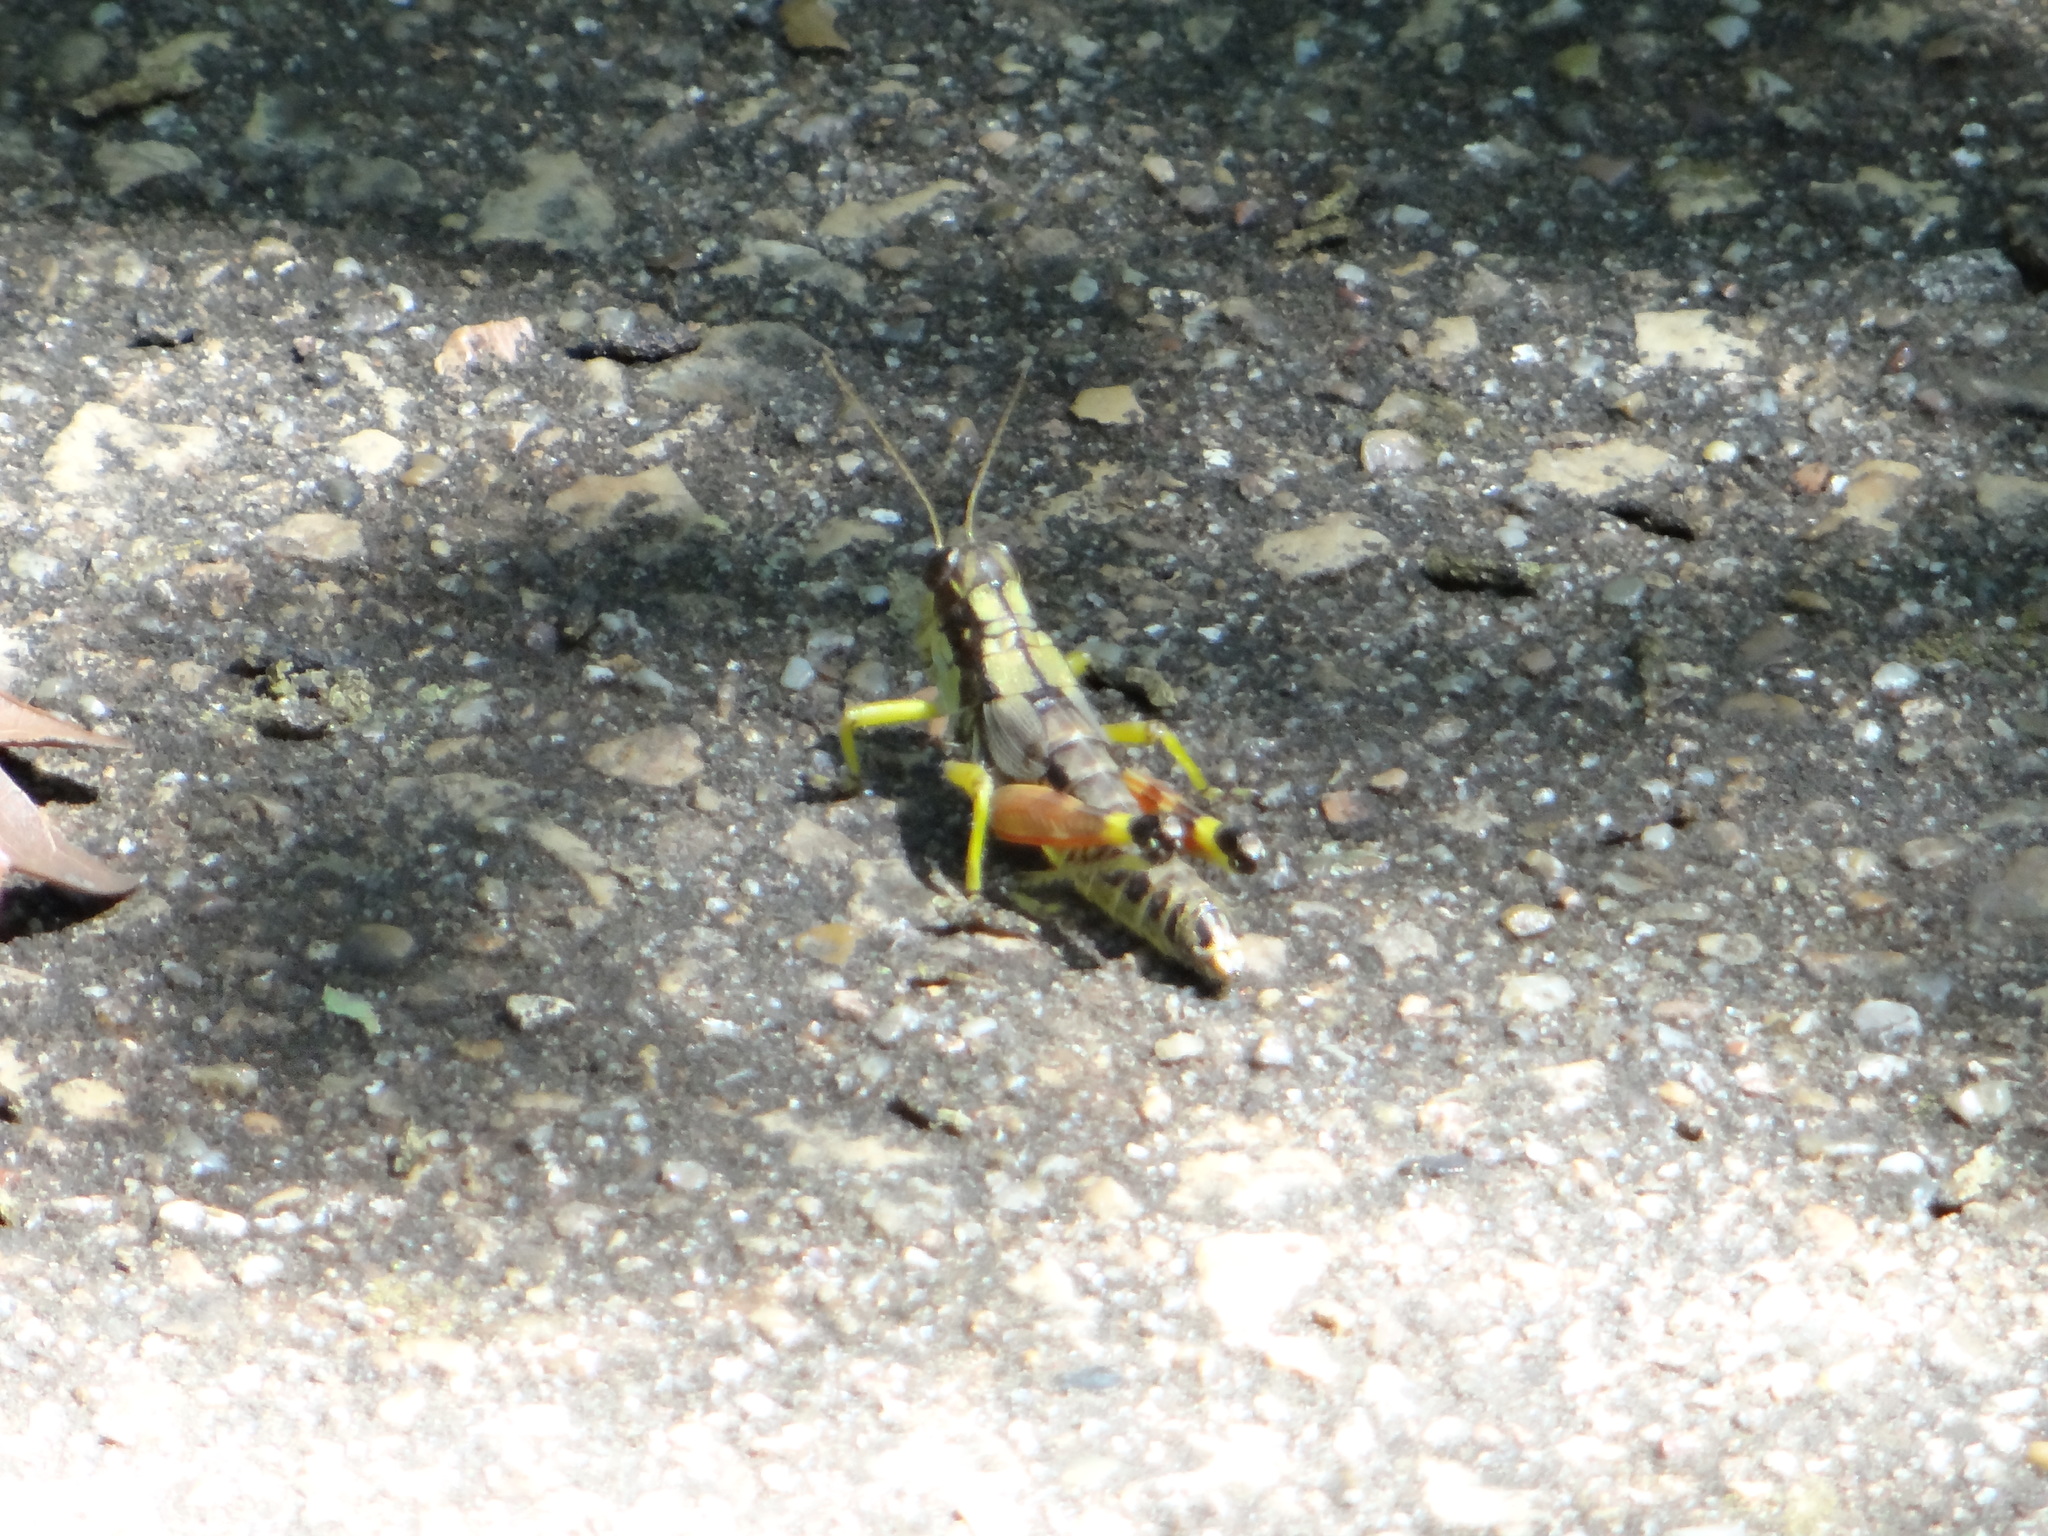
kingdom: Animalia
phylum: Arthropoda
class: Insecta
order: Orthoptera
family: Acrididae
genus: Dendrotettix
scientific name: Dendrotettix quercus
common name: Post oak grasshopper
